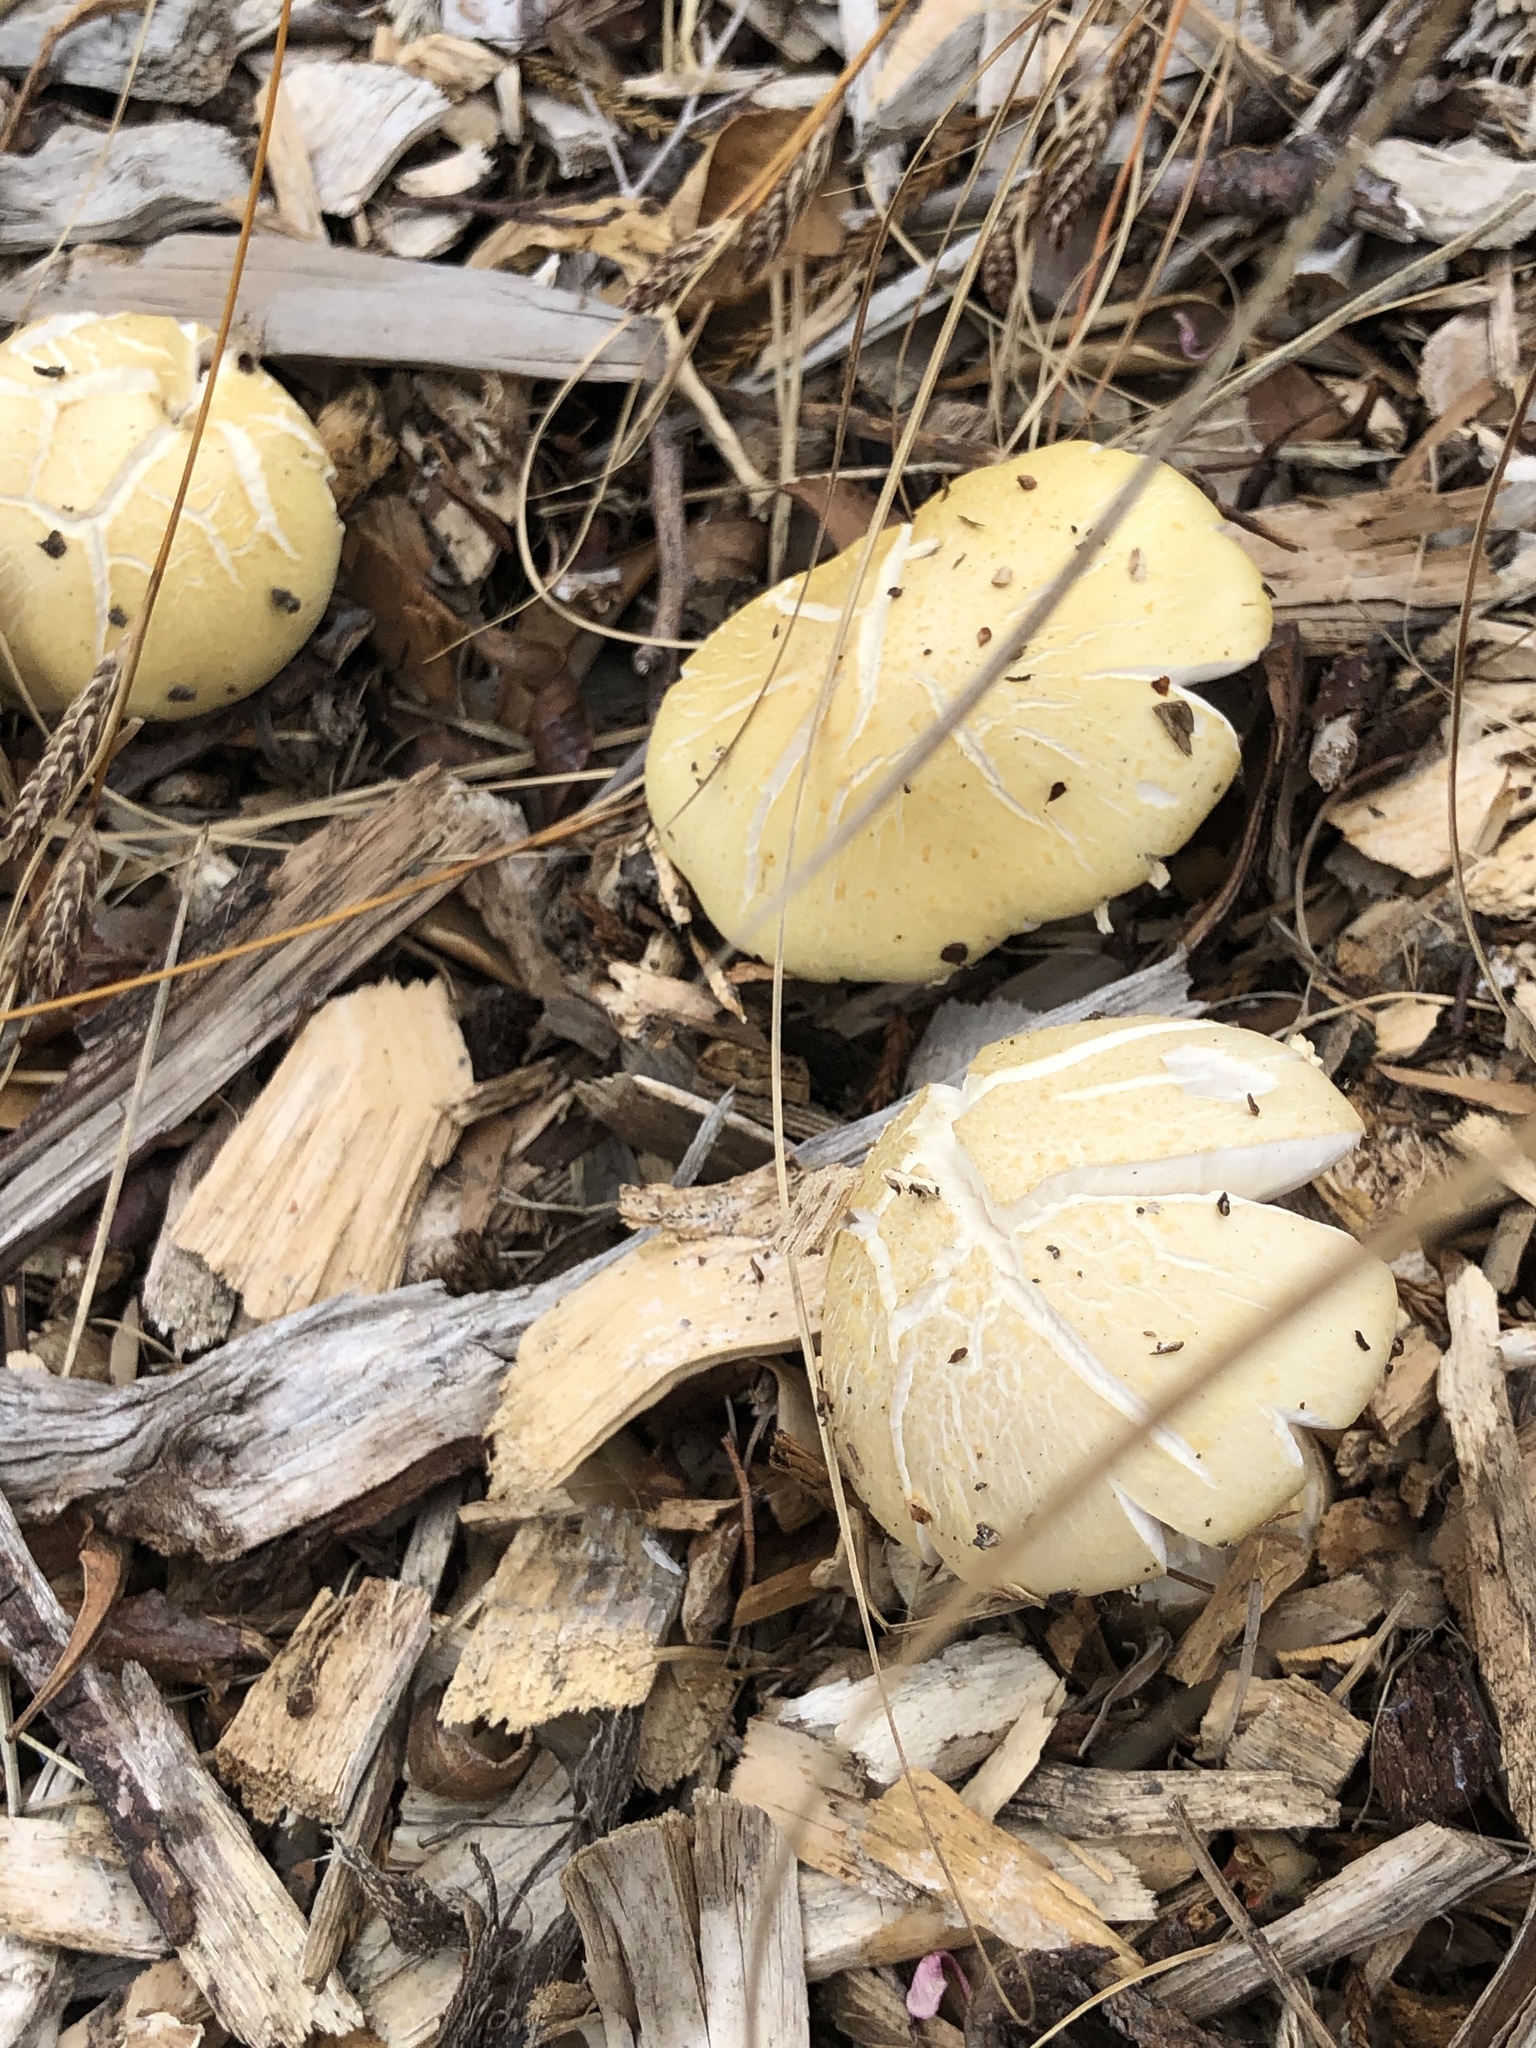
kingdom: Fungi
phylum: Basidiomycota
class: Agaricomycetes
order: Agaricales
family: Strophariaceae
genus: Stropharia
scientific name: Stropharia rugosoannulata
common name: Wine roundhead
